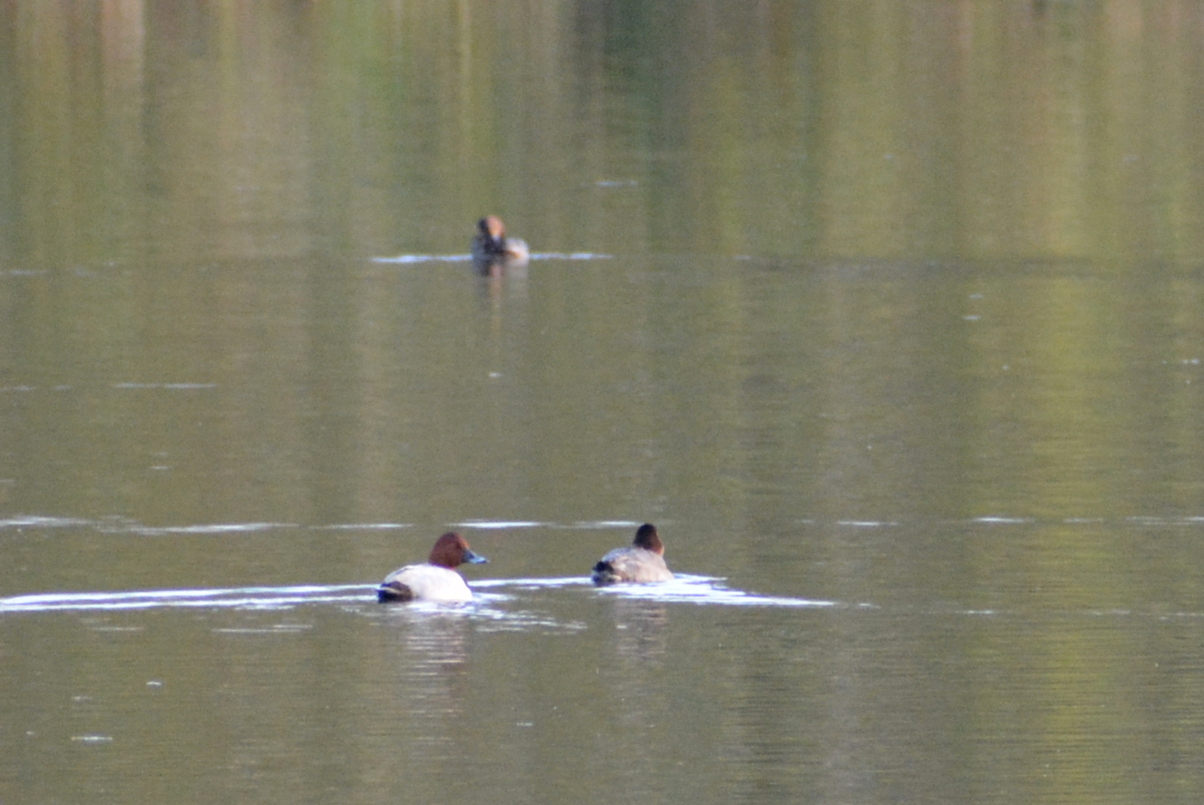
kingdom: Animalia
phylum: Chordata
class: Aves
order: Anseriformes
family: Anatidae
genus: Aythya
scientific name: Aythya ferina
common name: Common pochard
